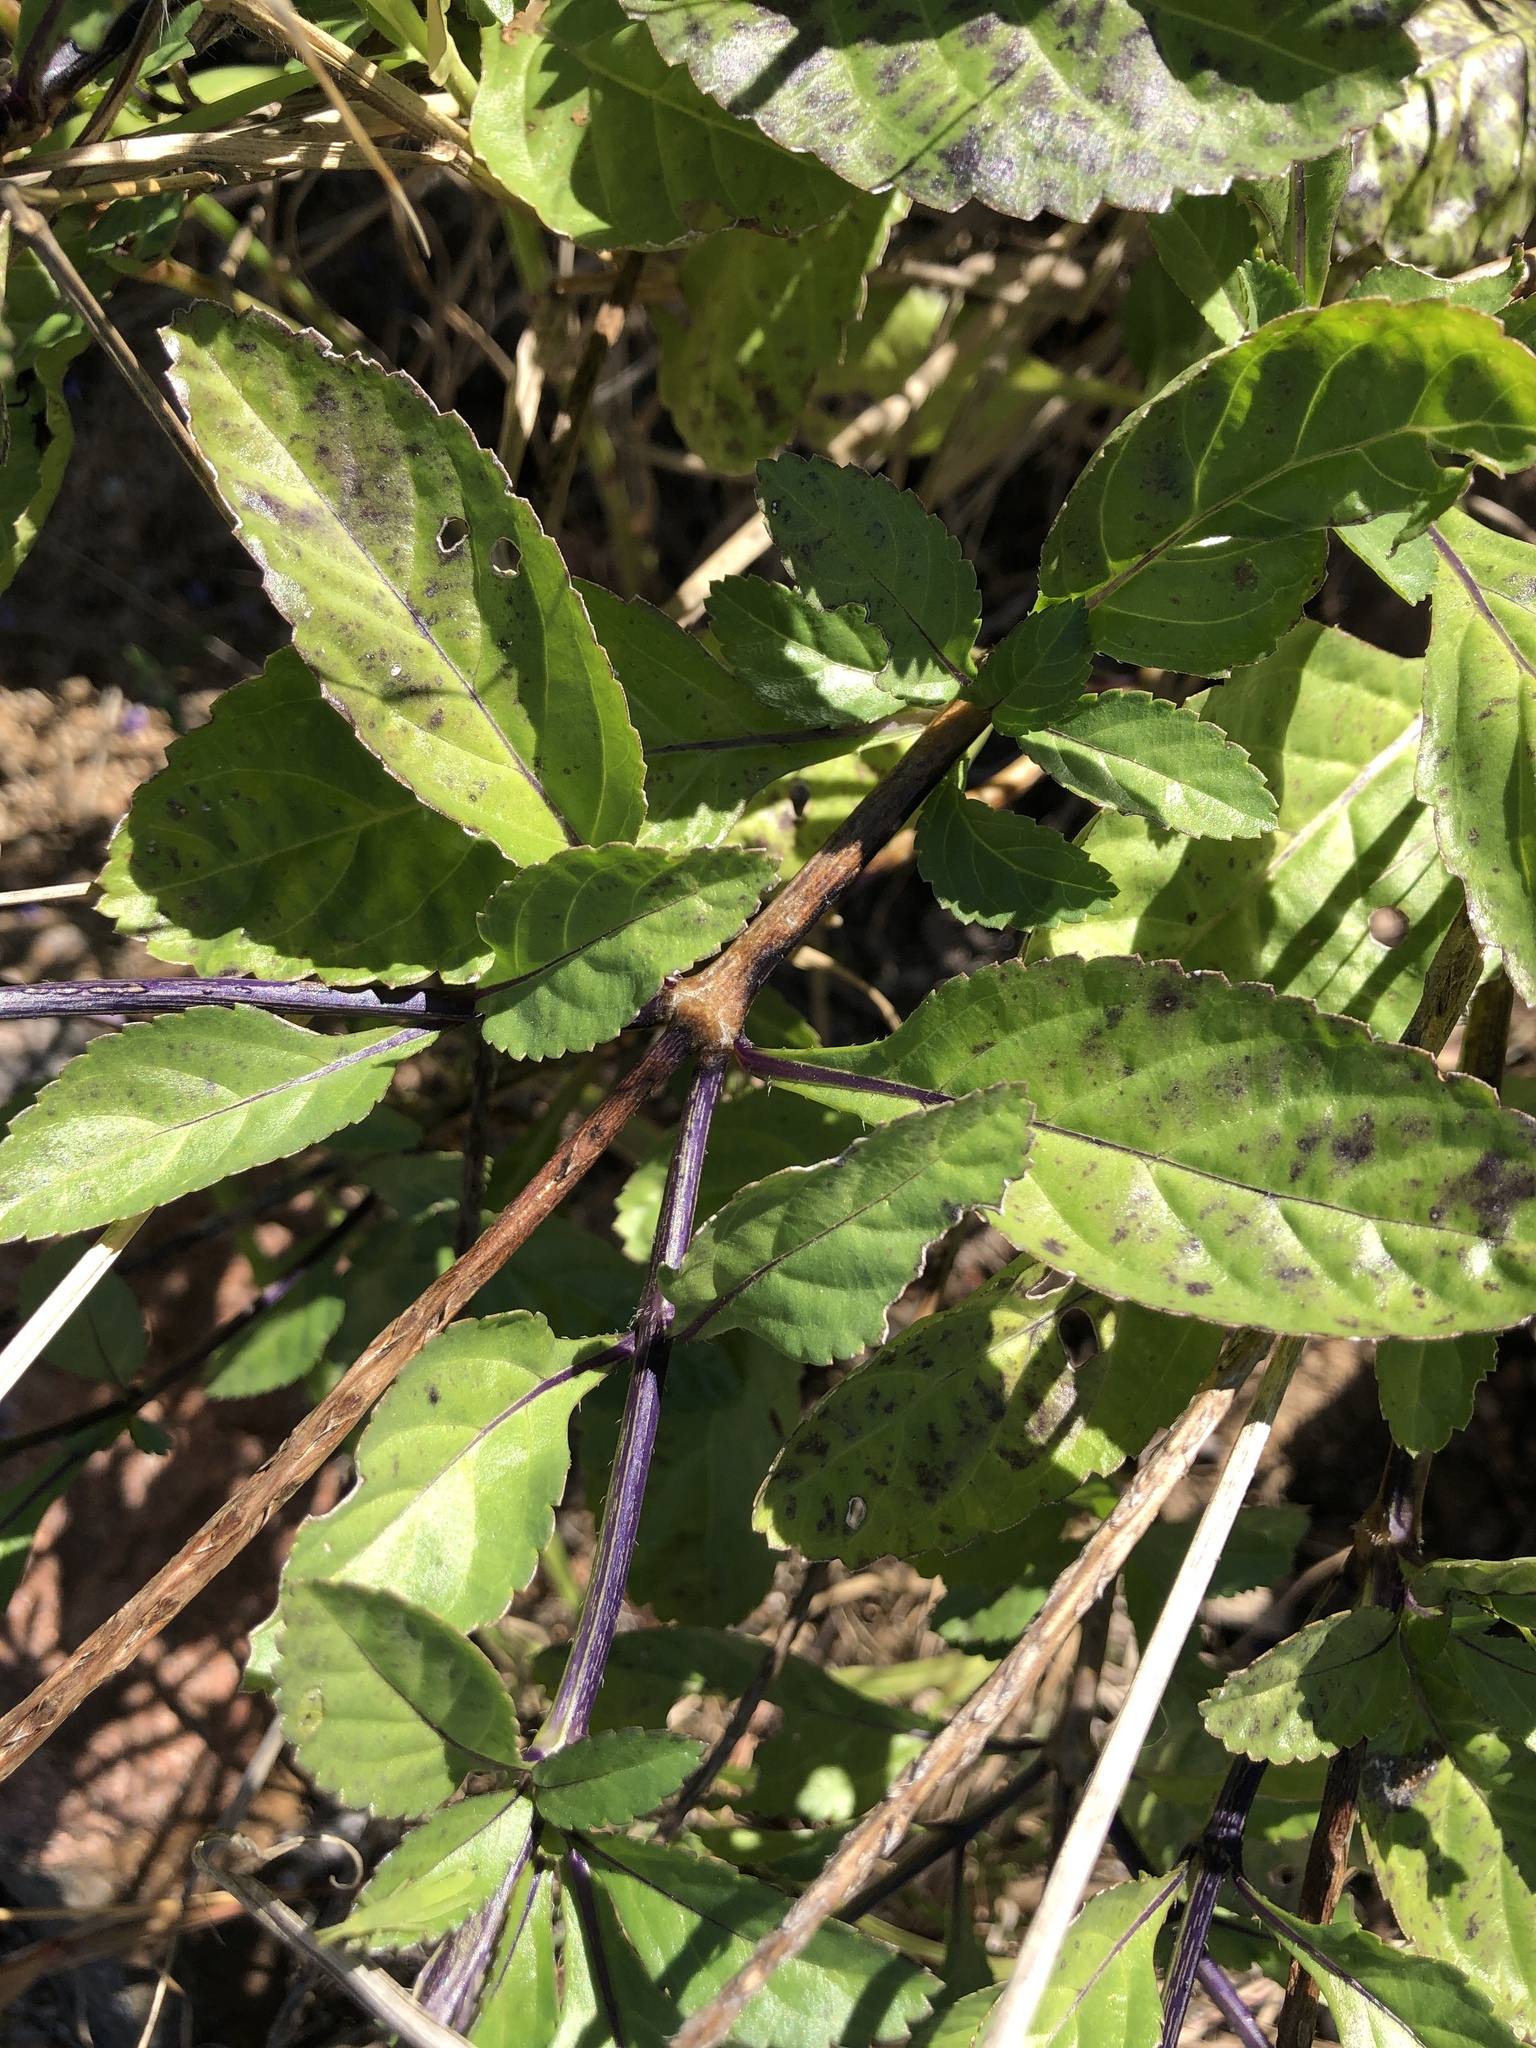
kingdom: Plantae
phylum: Tracheophyta
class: Magnoliopsida
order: Lamiales
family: Verbenaceae
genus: Stachytarpheta
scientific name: Stachytarpheta jamaicensis
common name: Light-blue snakeweed
